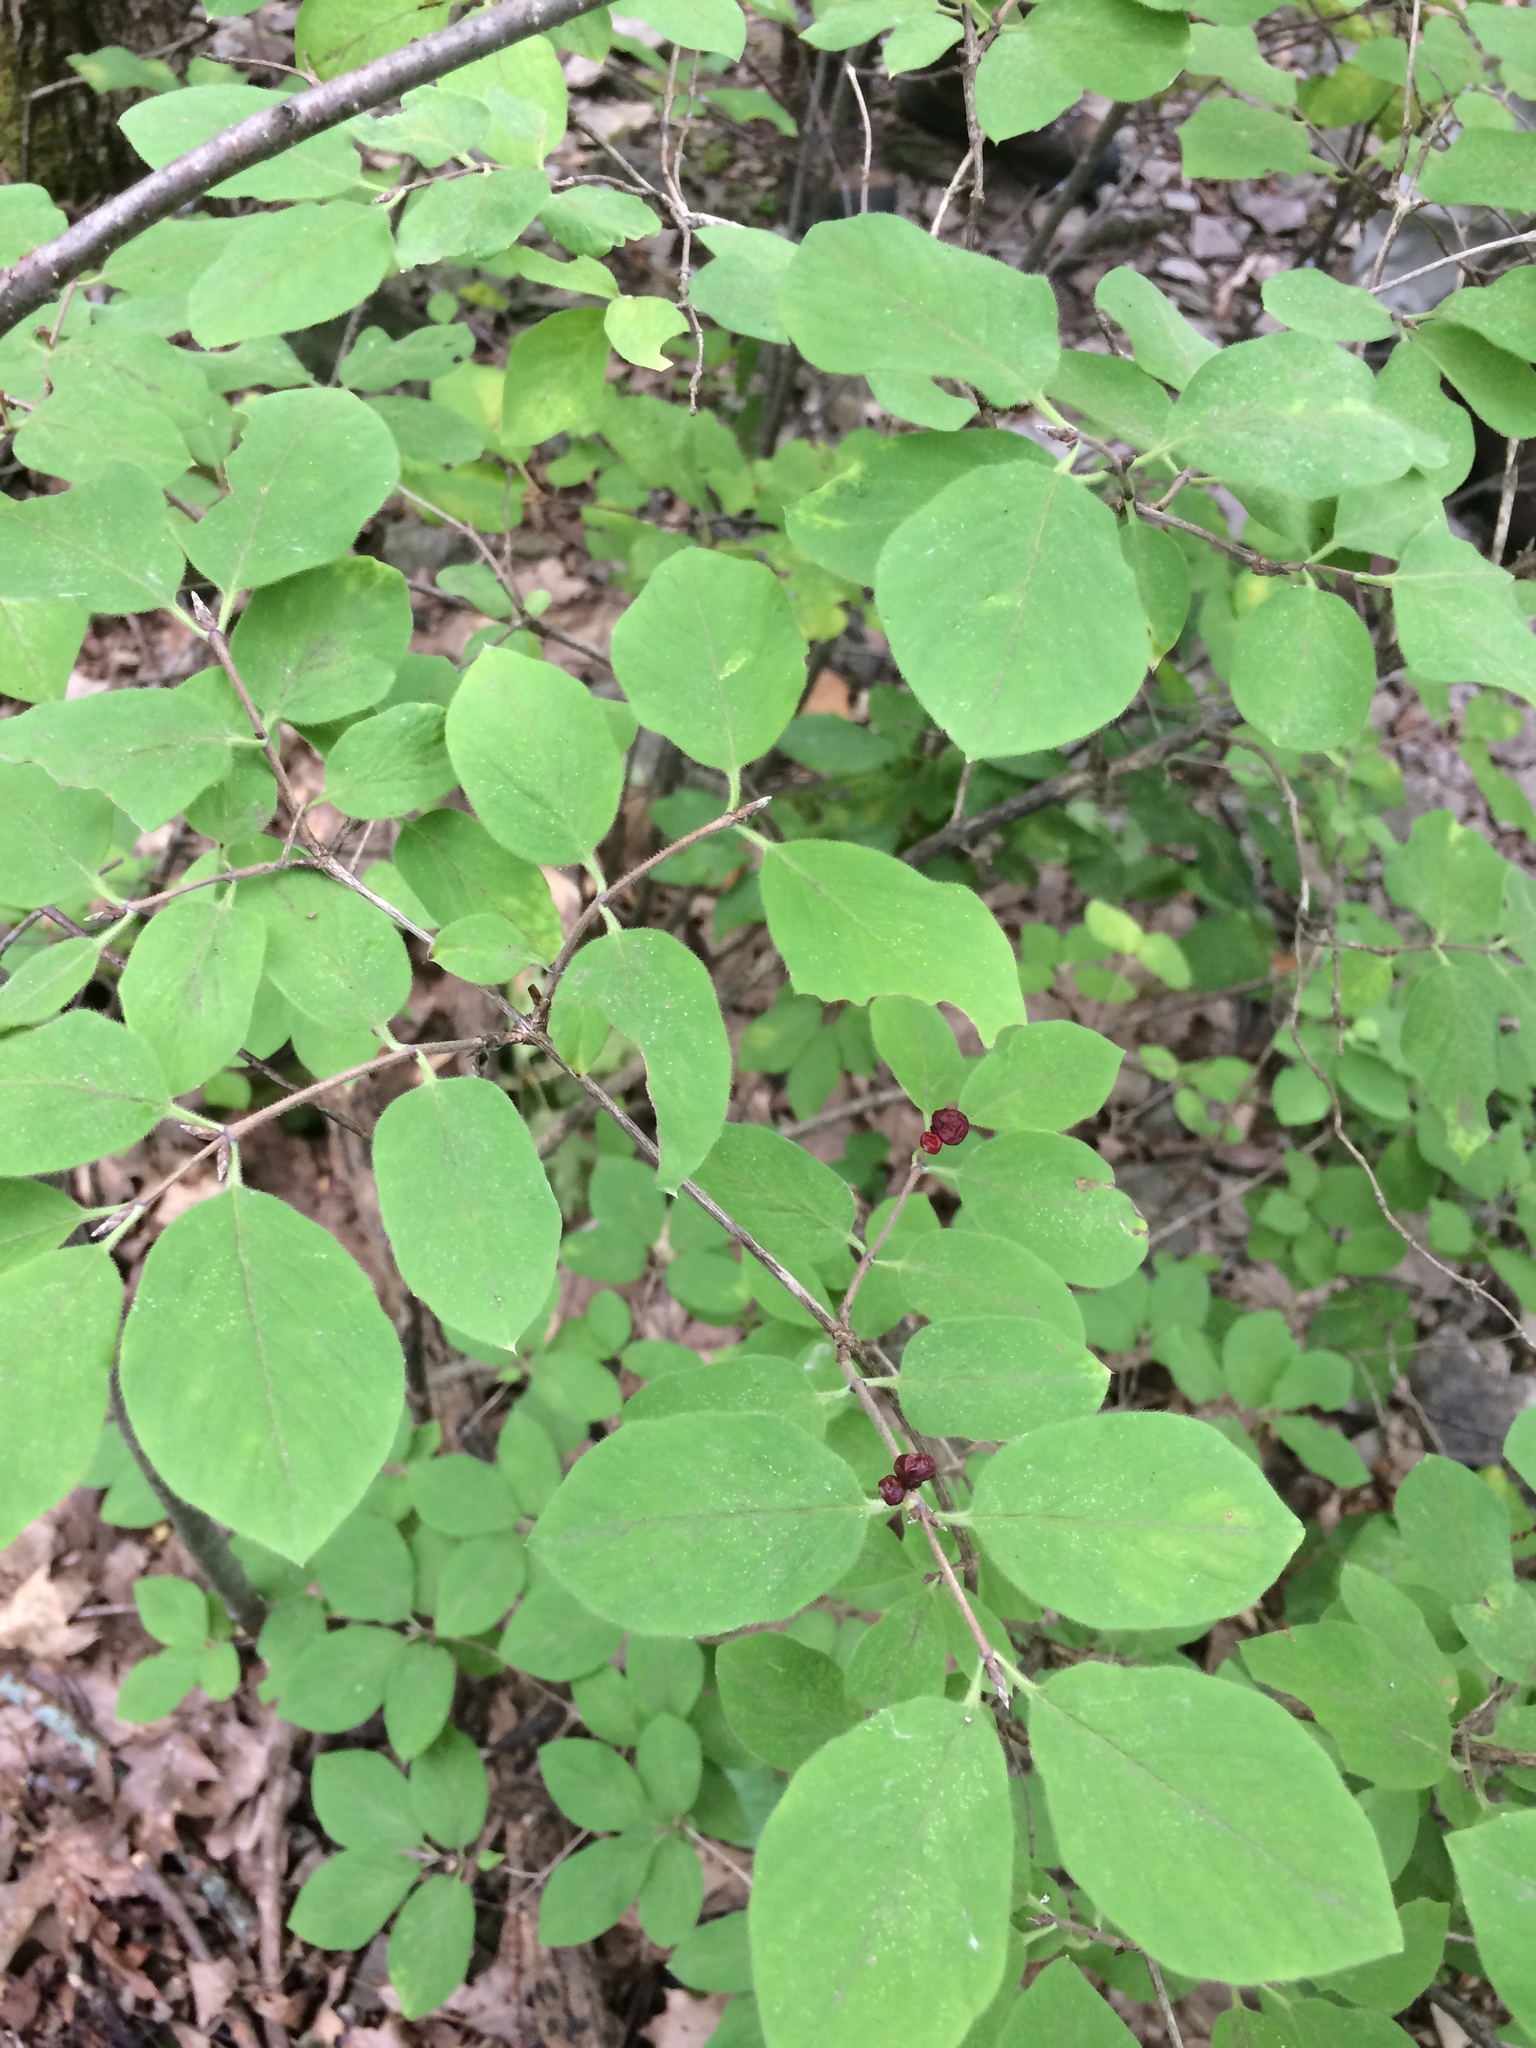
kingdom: Plantae
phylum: Tracheophyta
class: Magnoliopsida
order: Dipsacales
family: Caprifoliaceae
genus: Lonicera
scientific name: Lonicera xylosteum
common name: Fly honeysuckle
